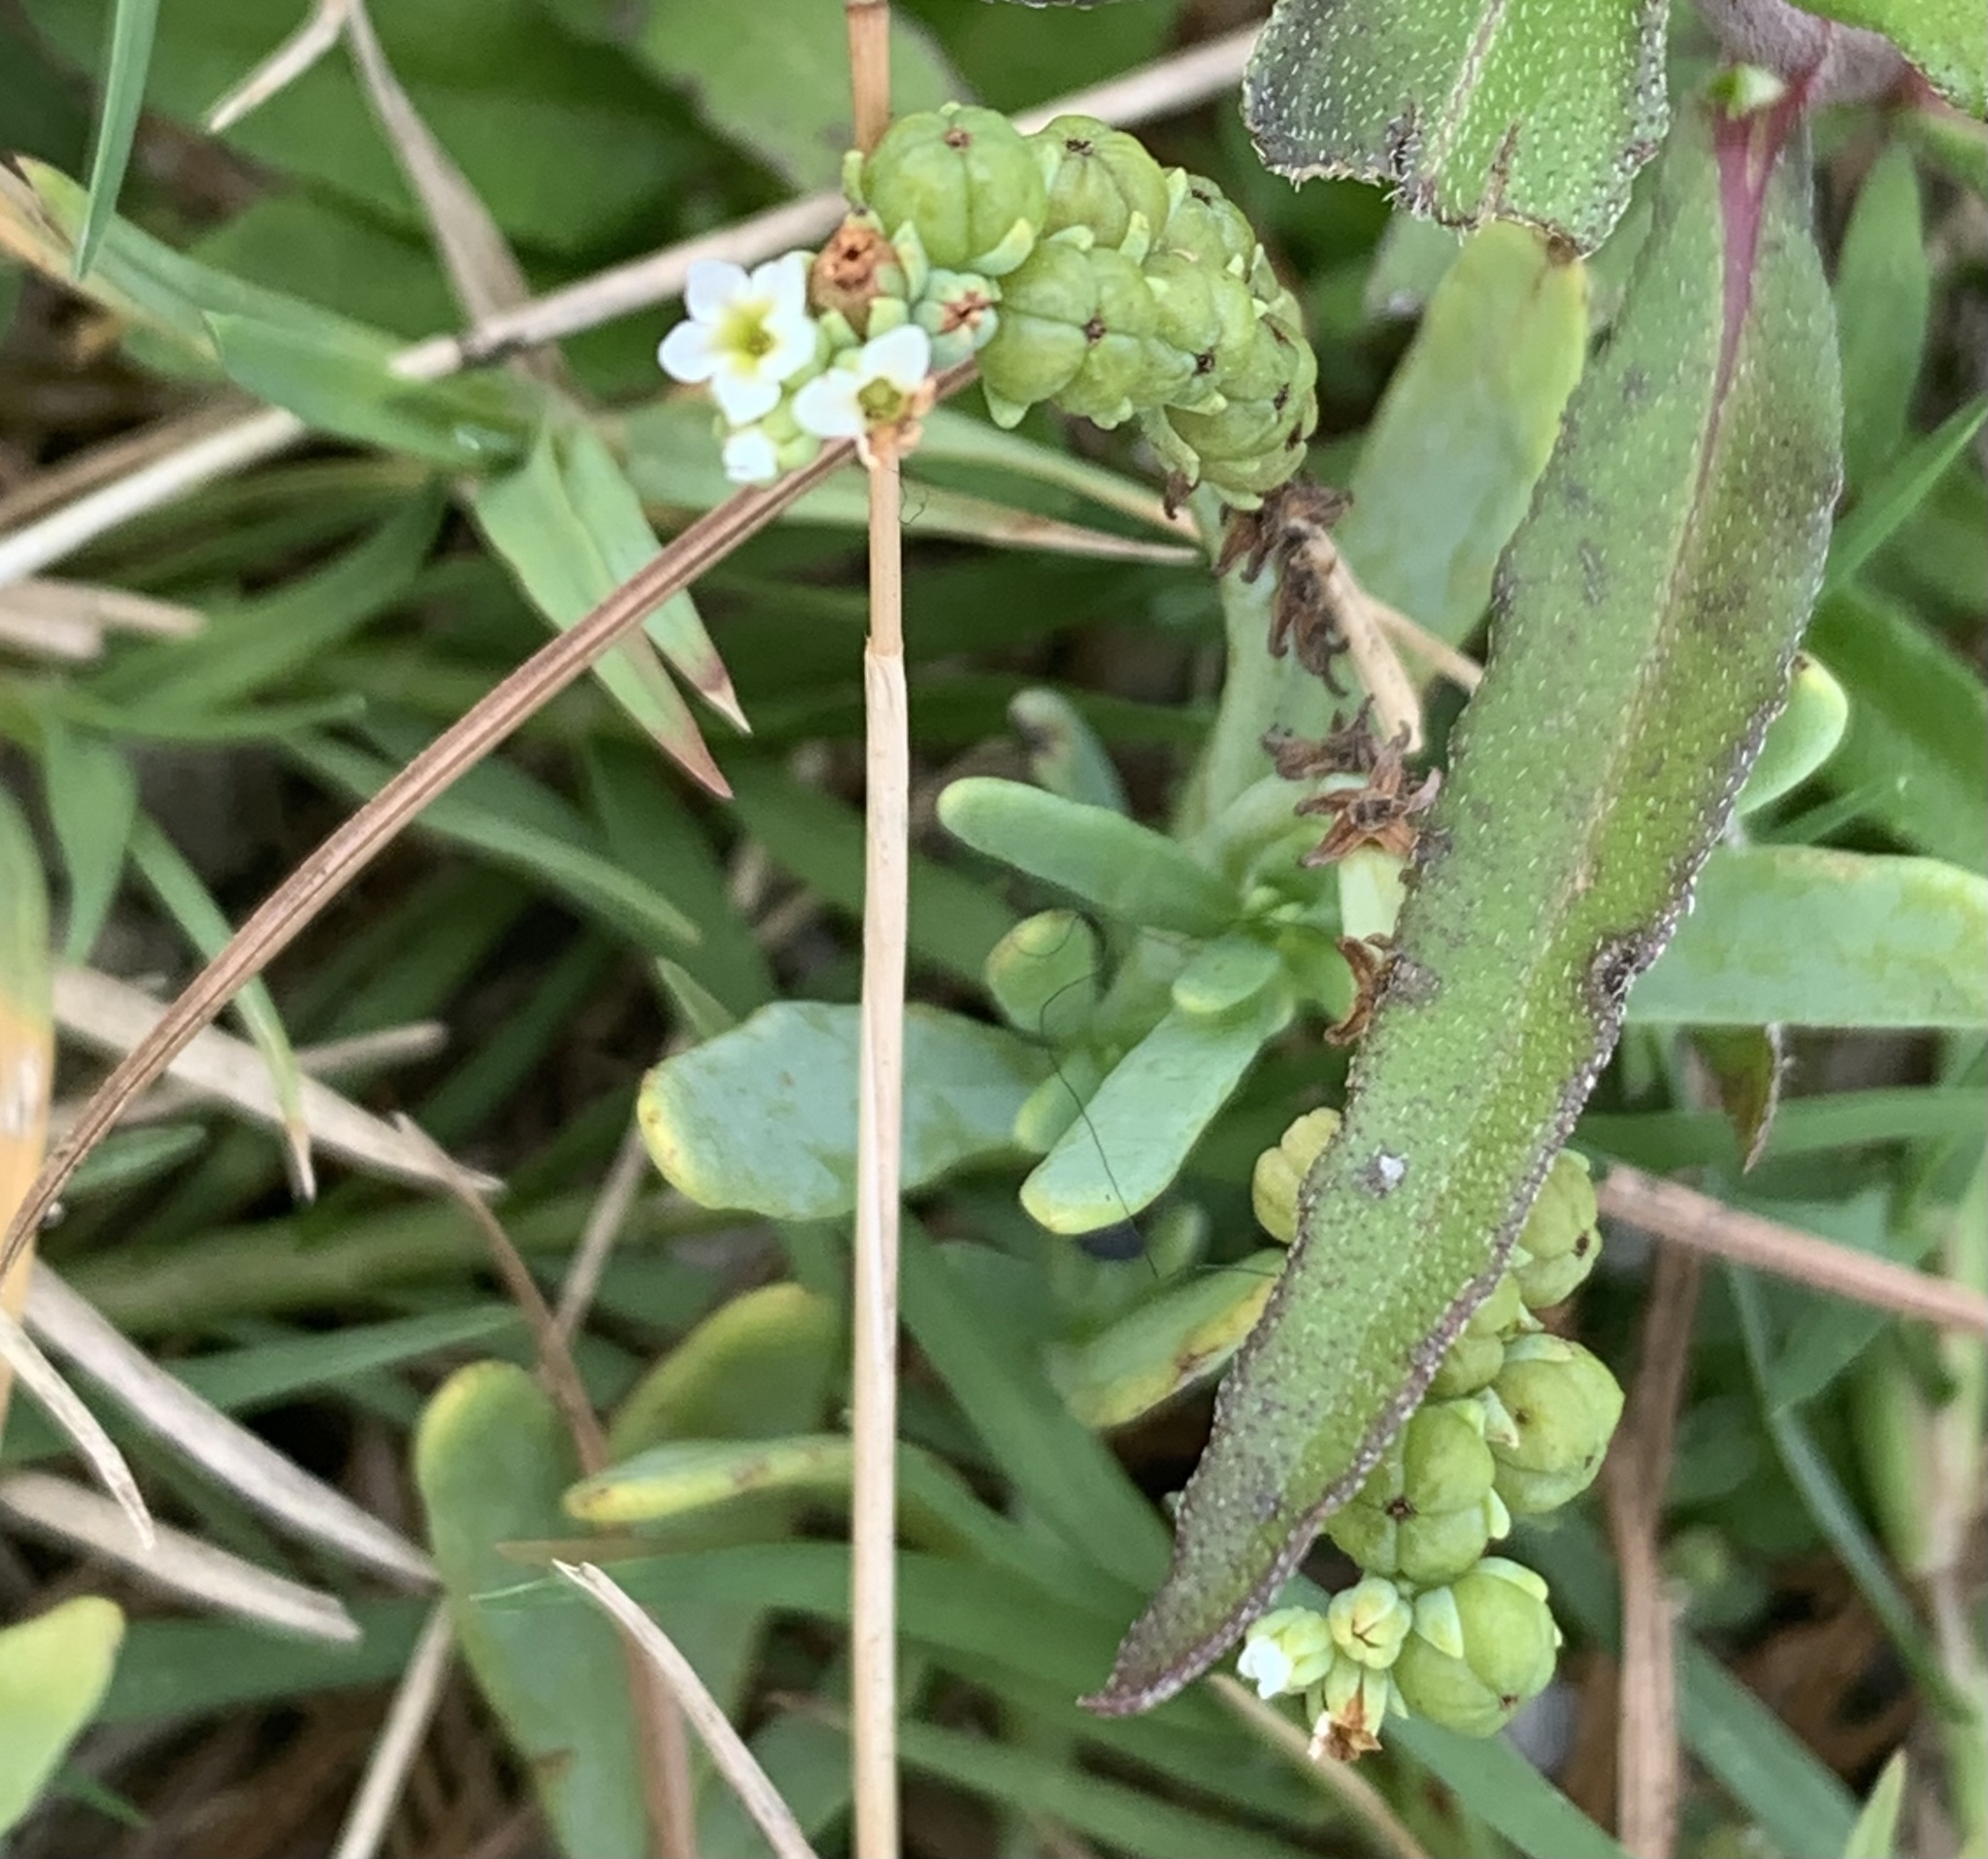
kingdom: Plantae
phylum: Tracheophyta
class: Magnoliopsida
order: Boraginales
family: Heliotropiaceae
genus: Heliotropium
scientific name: Heliotropium curassavicum
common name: Seaside heliotrope
